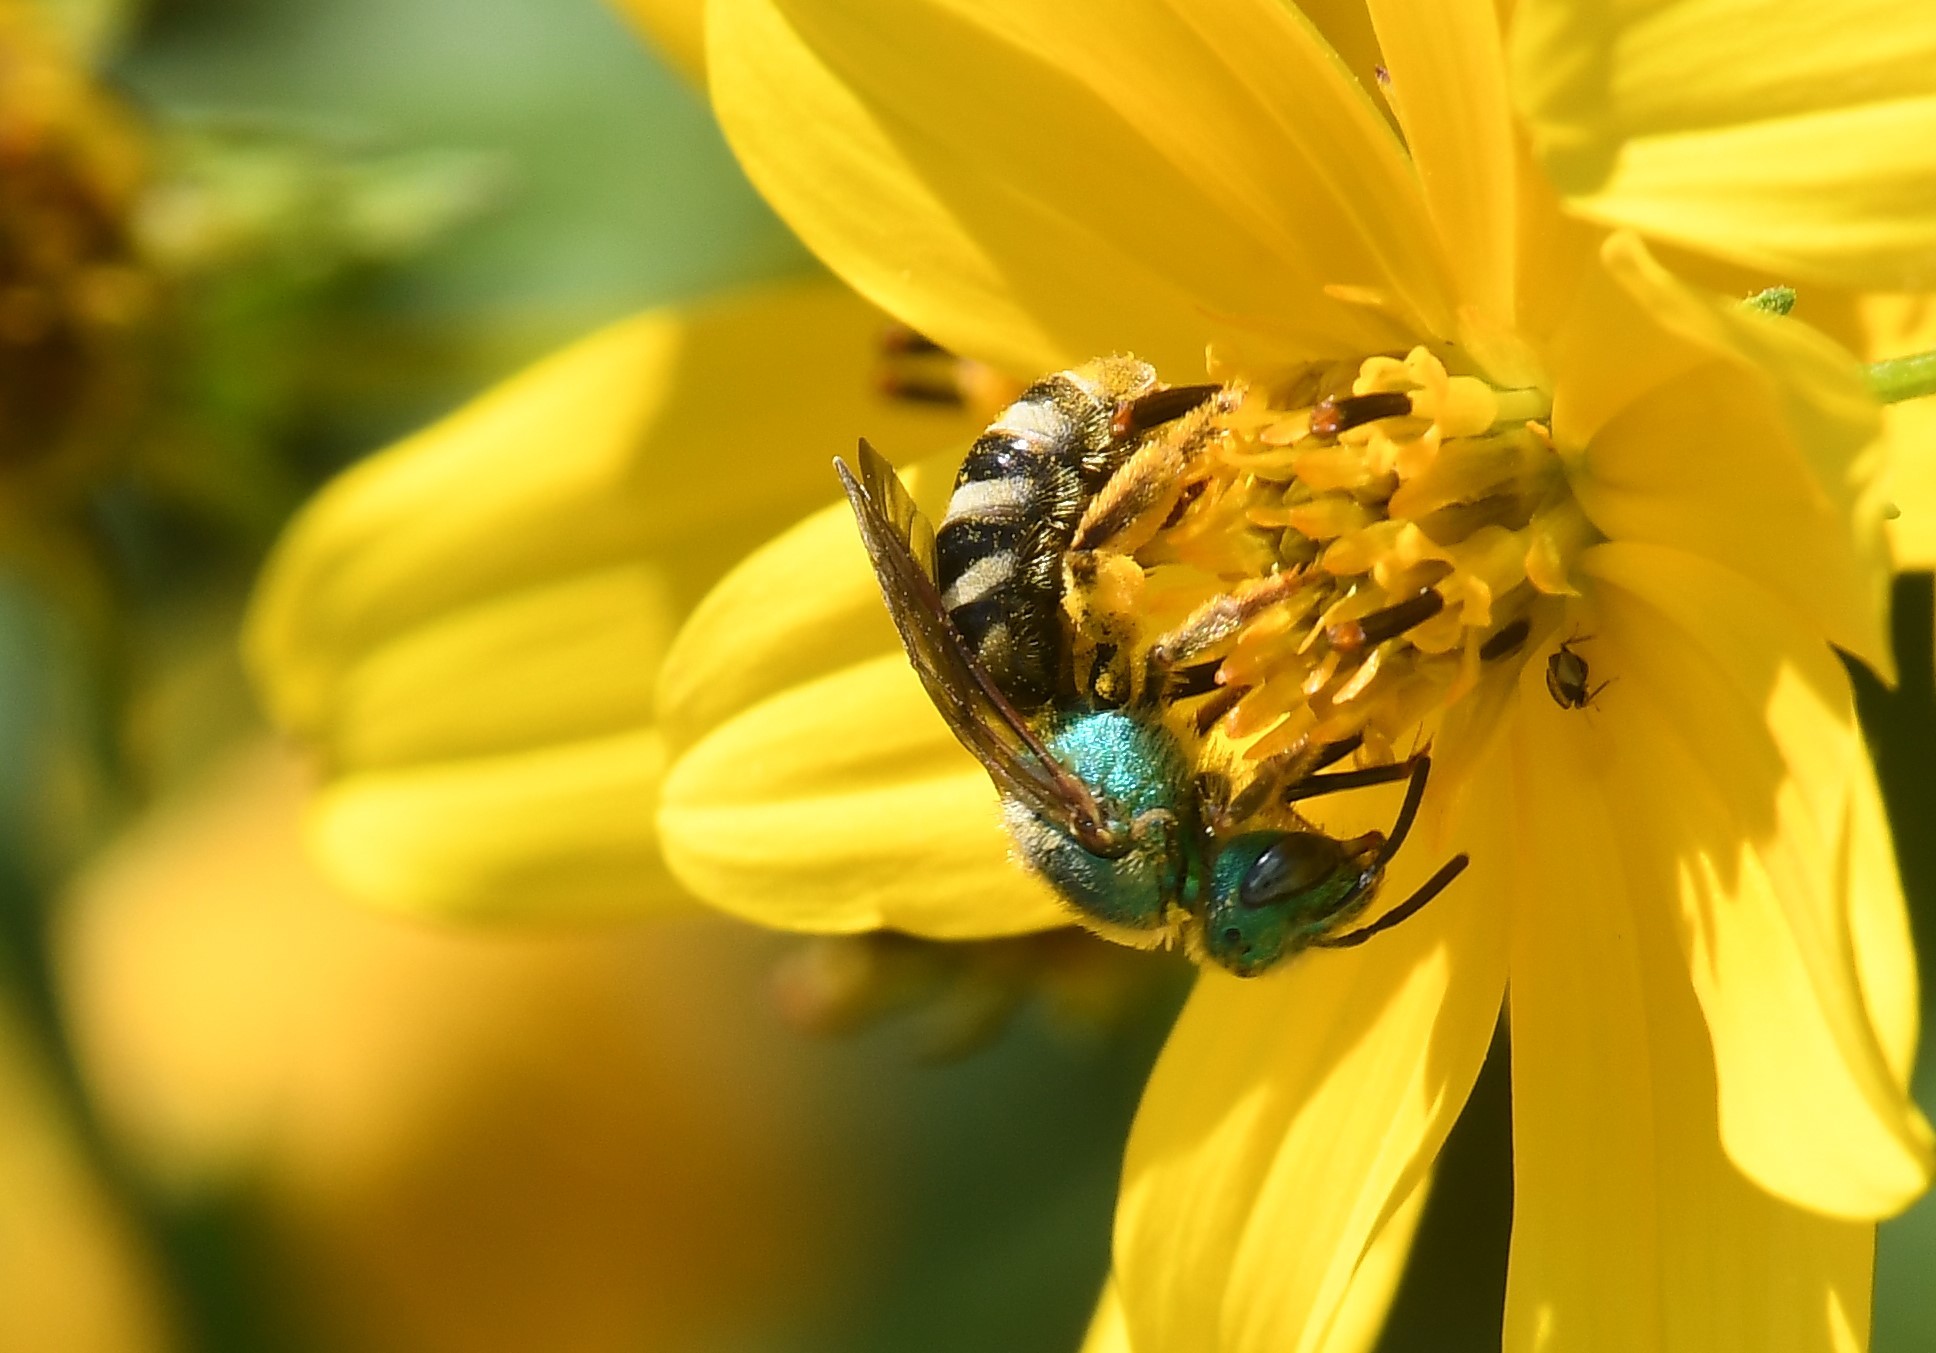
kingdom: Animalia
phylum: Arthropoda
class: Insecta
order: Hymenoptera
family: Halictidae
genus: Agapostemon
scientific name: Agapostemon virescens
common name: Bicolored striped sweat bee
